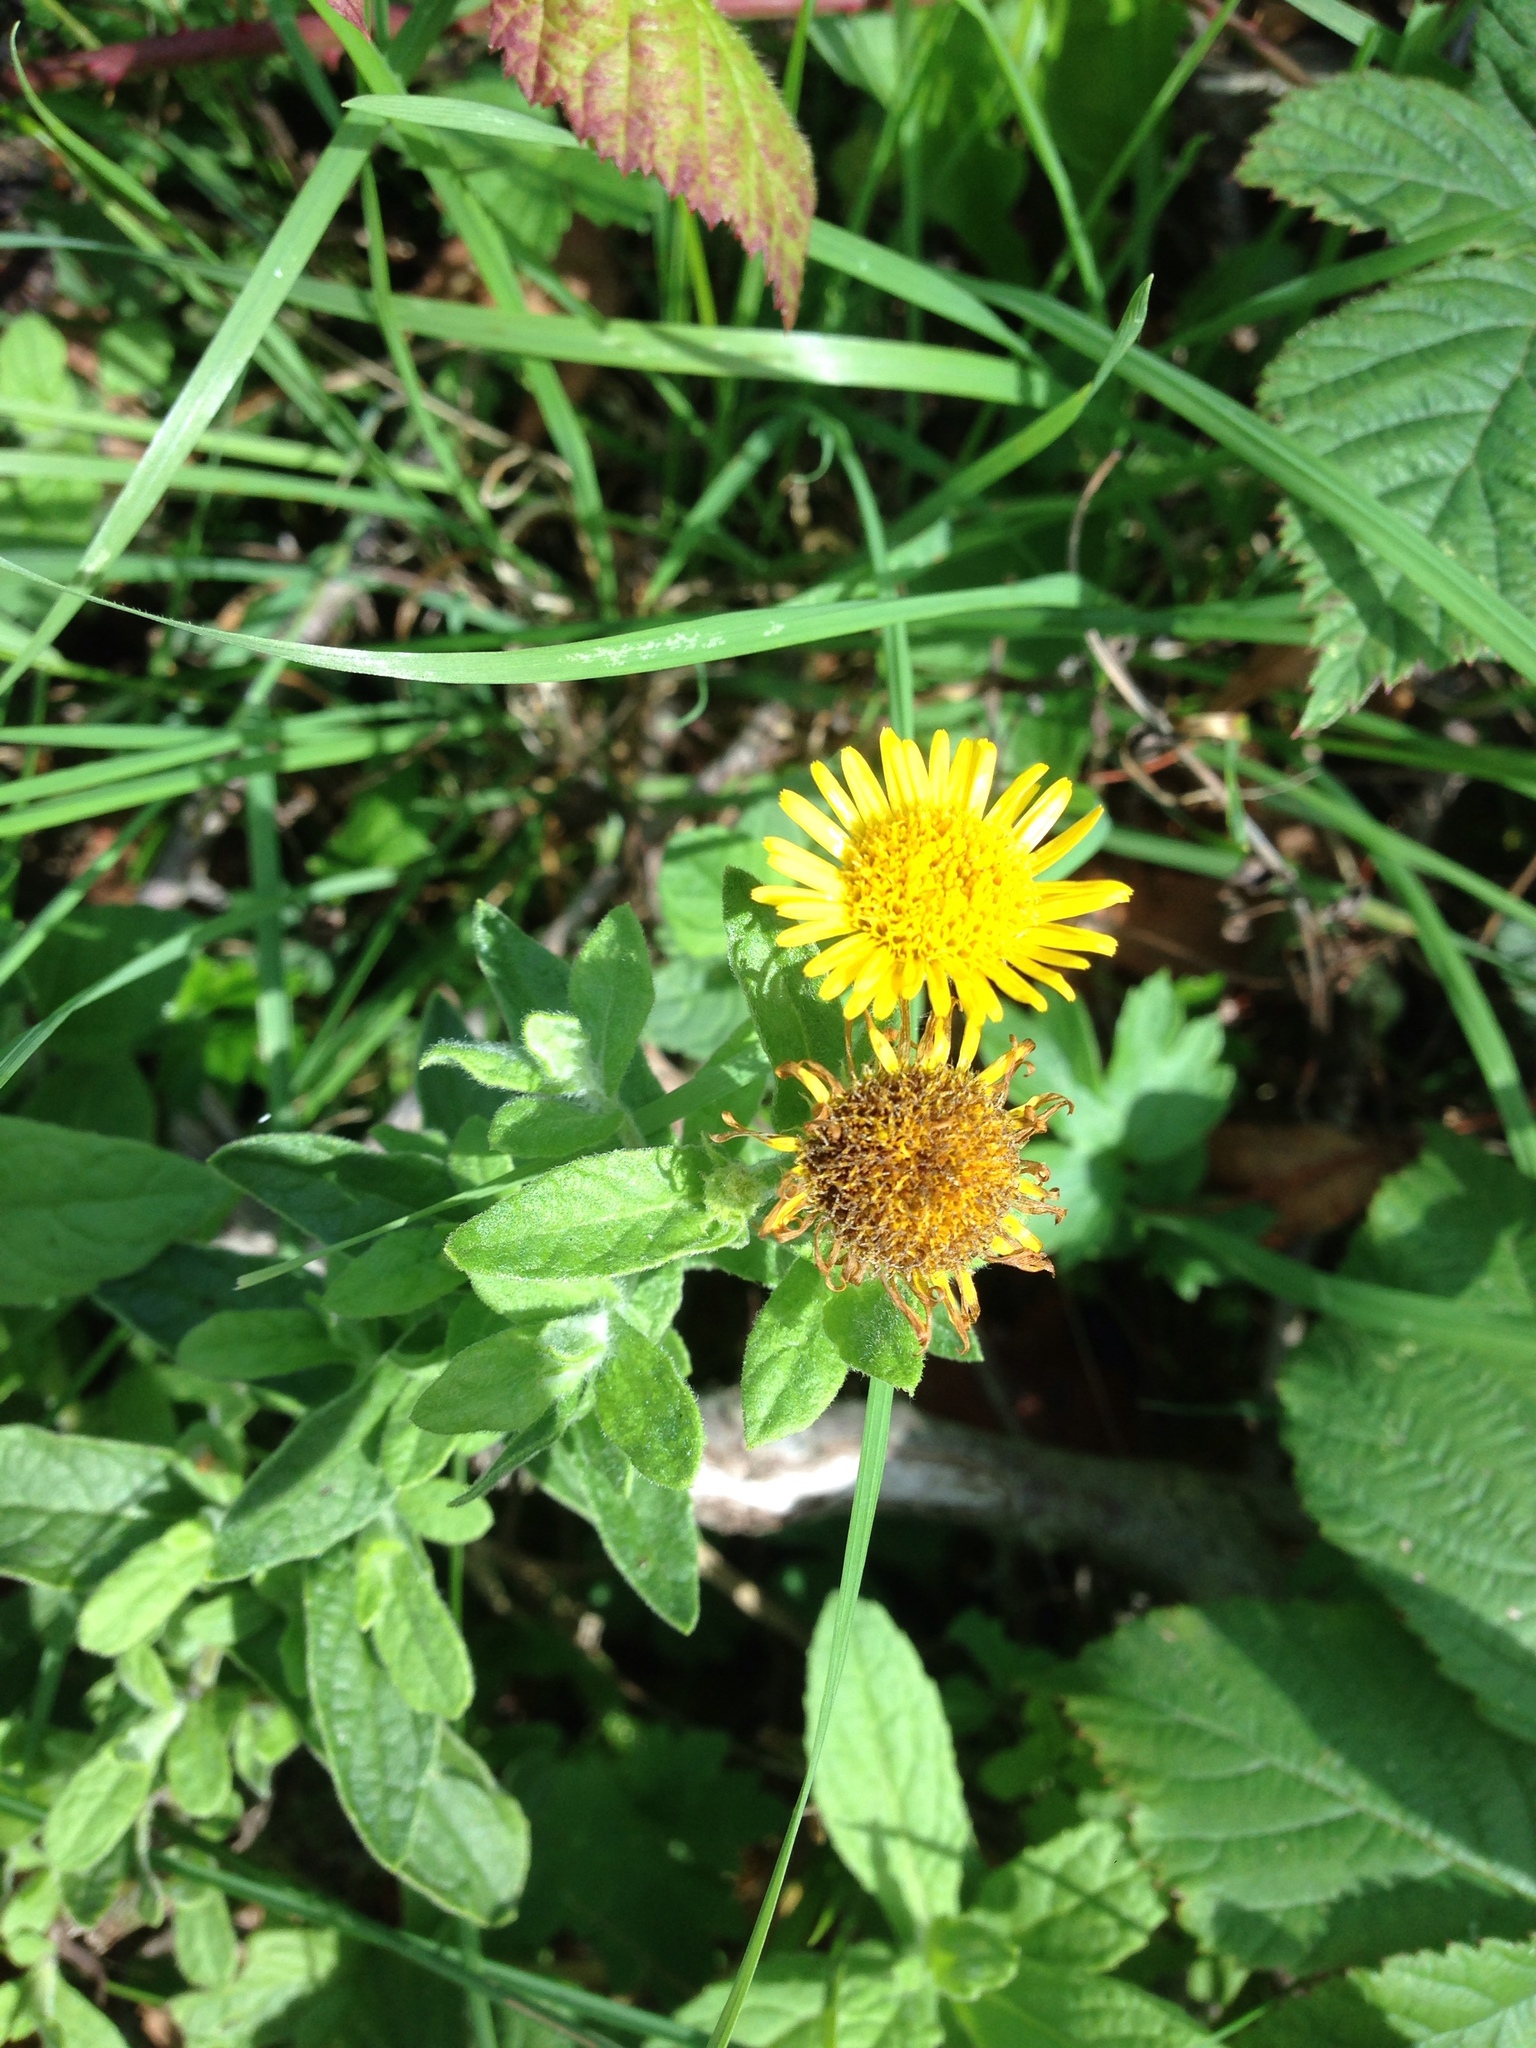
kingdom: Plantae
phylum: Tracheophyta
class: Magnoliopsida
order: Asterales
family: Asteraceae
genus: Pulicaria
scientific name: Pulicaria dysenterica
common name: Common fleabane
